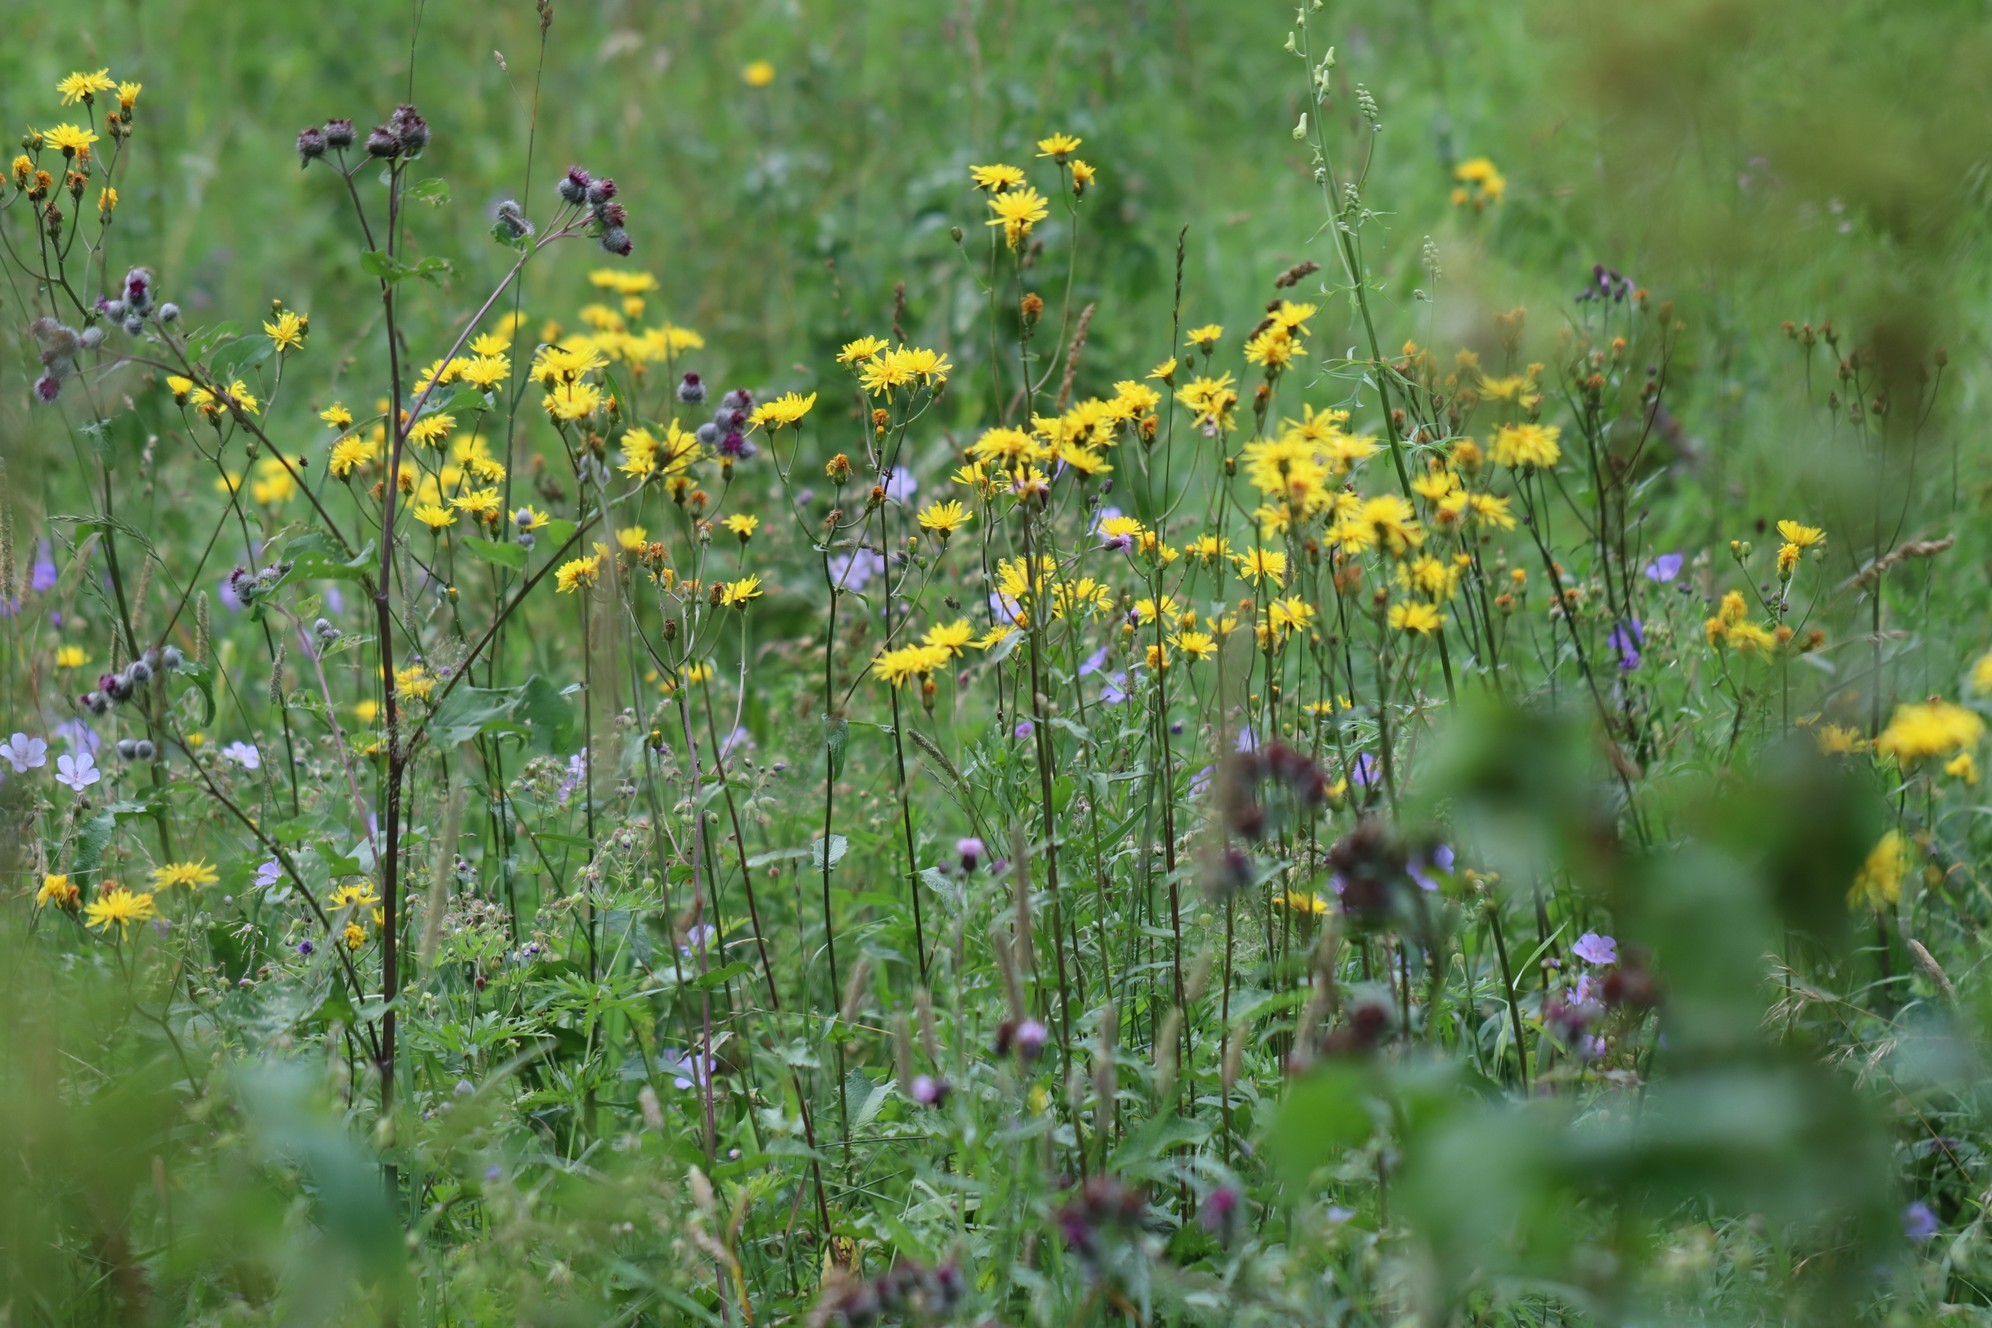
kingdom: Plantae
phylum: Tracheophyta
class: Magnoliopsida
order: Asterales
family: Asteraceae
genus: Crepis
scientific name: Crepis sibirica
